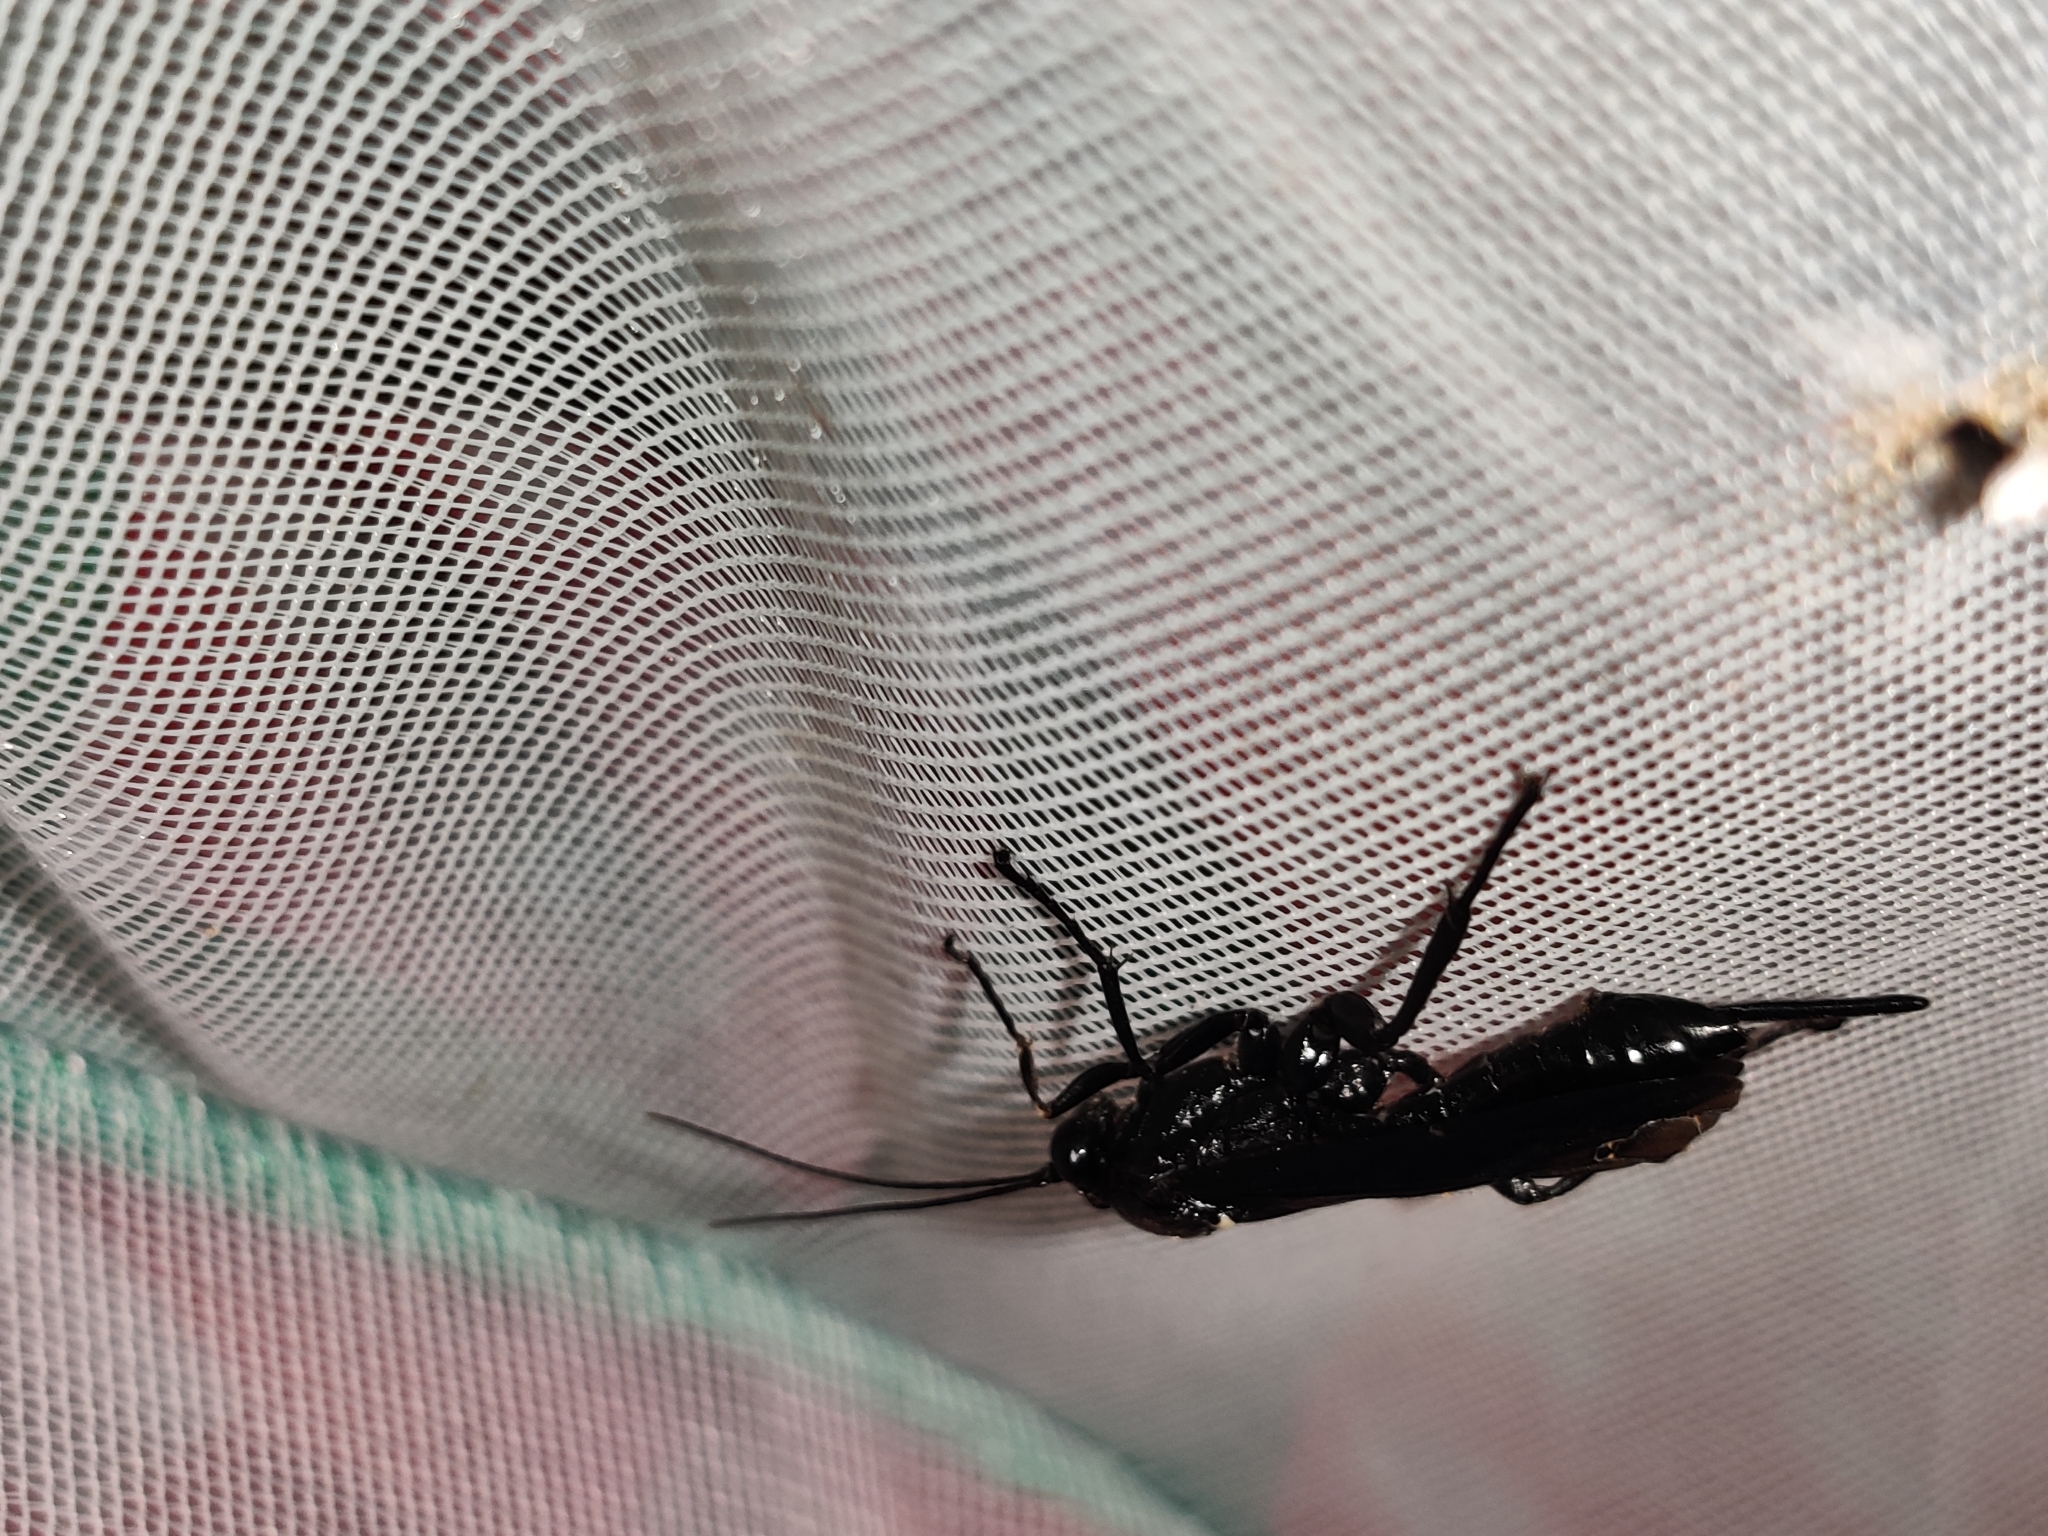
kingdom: Animalia
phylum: Arthropoda
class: Insecta
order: Hymenoptera
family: Ichneumonidae
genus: Pimpla
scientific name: Pimpla maura
